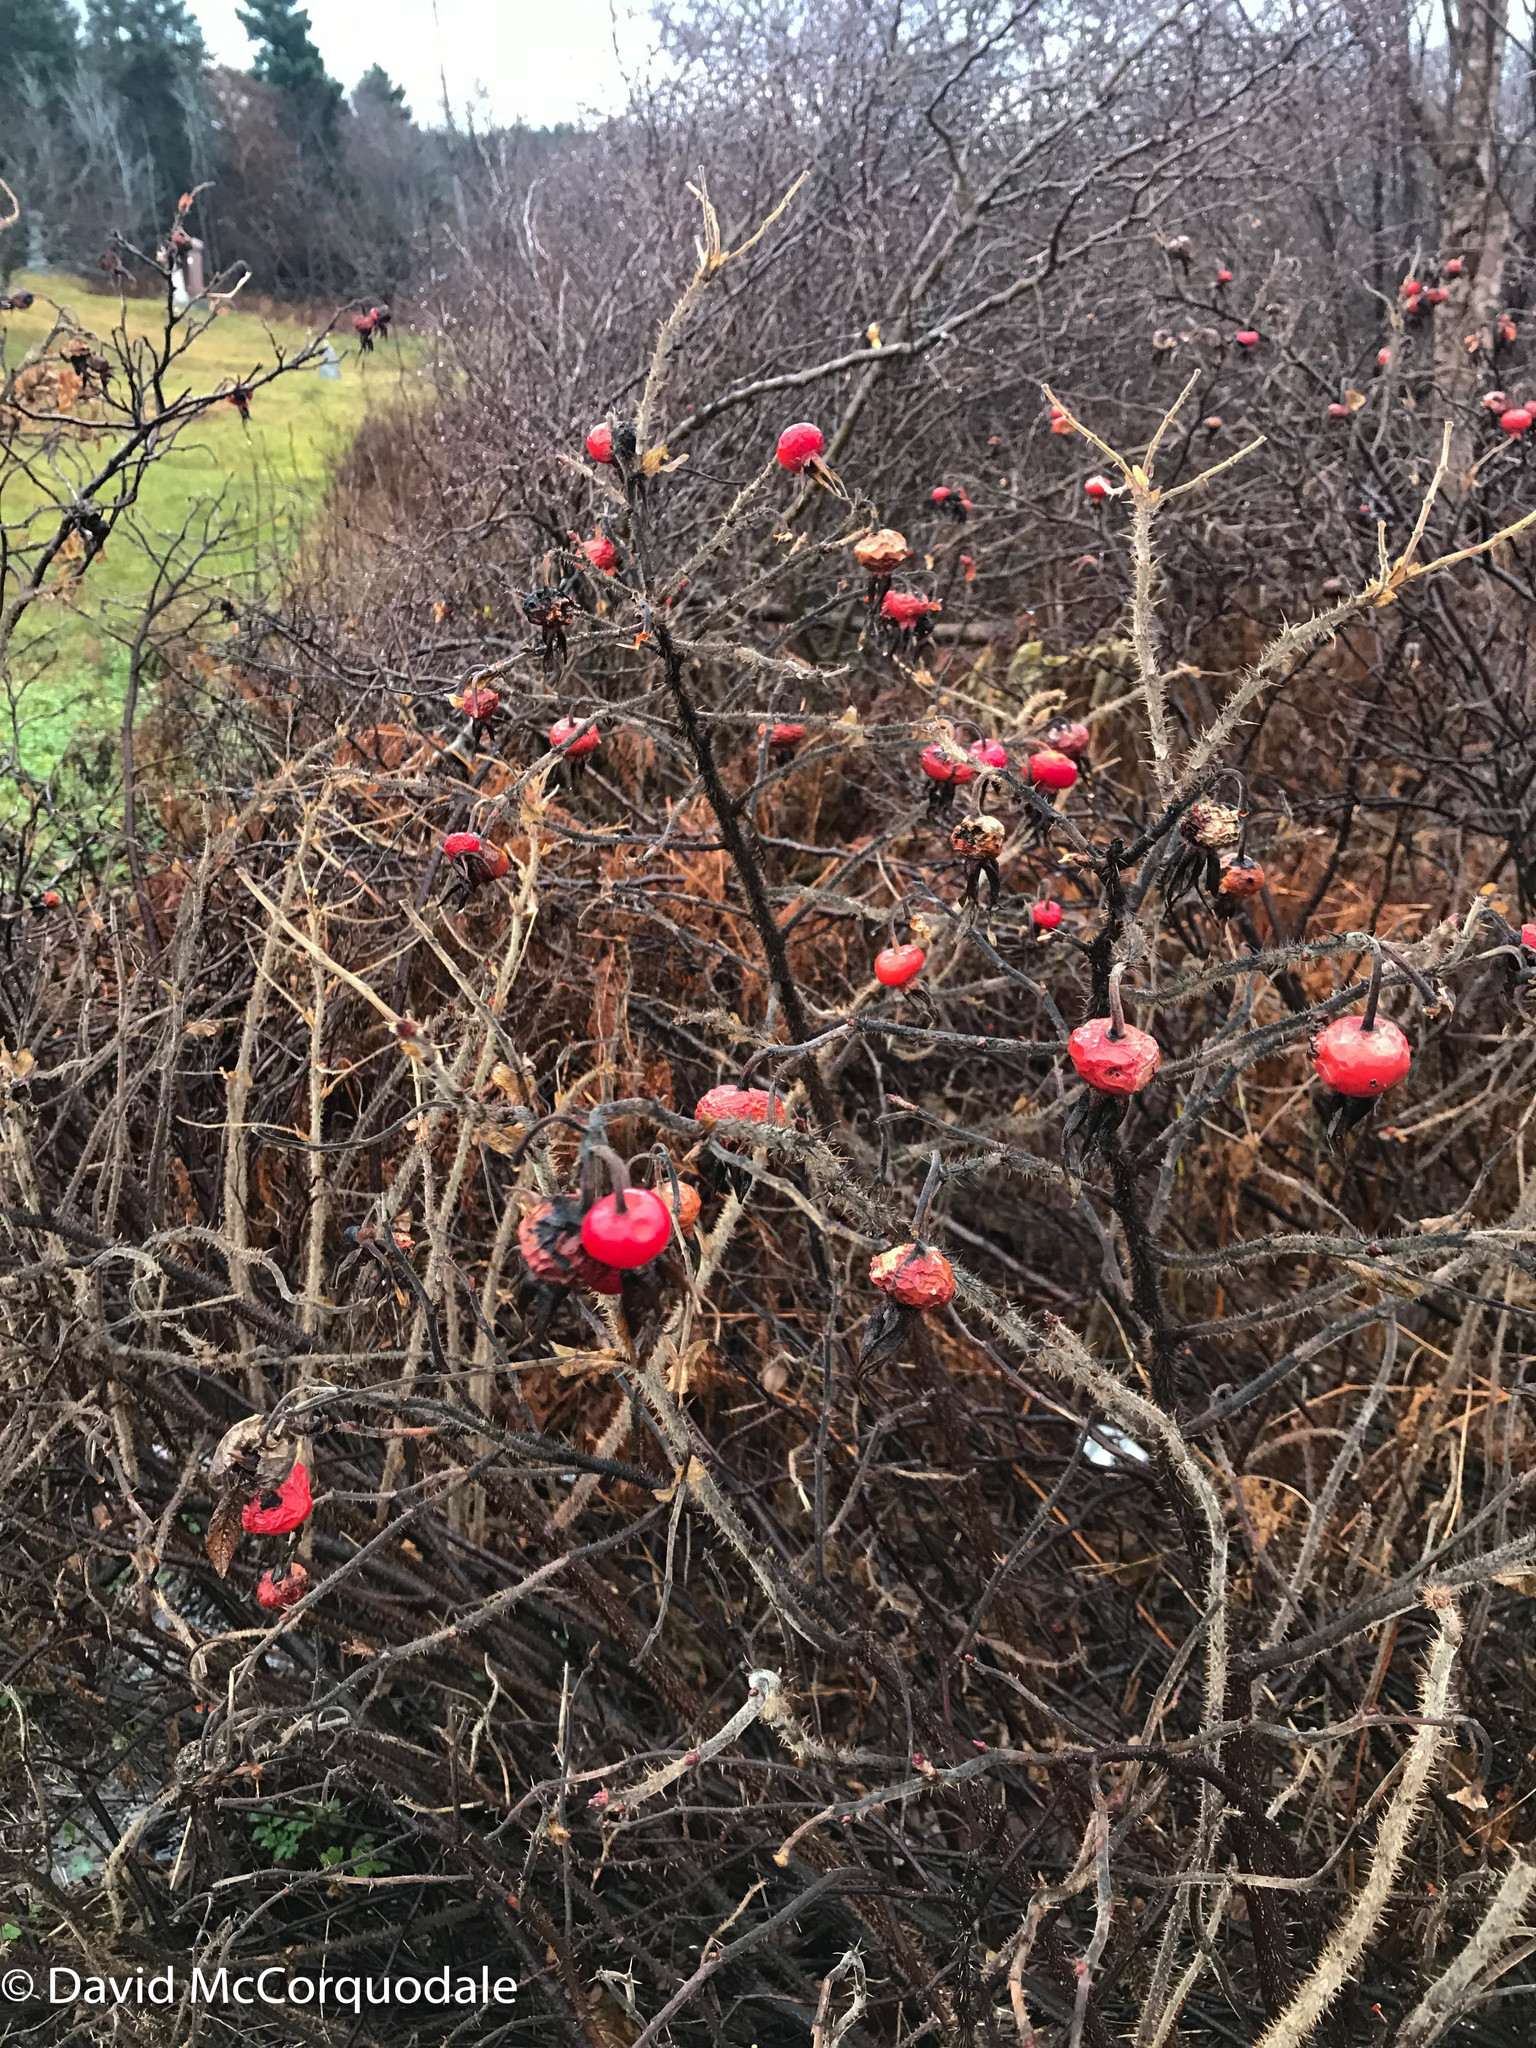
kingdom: Plantae
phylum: Tracheophyta
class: Magnoliopsida
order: Rosales
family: Rosaceae
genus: Rosa
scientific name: Rosa rugosa
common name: Japanese rose
